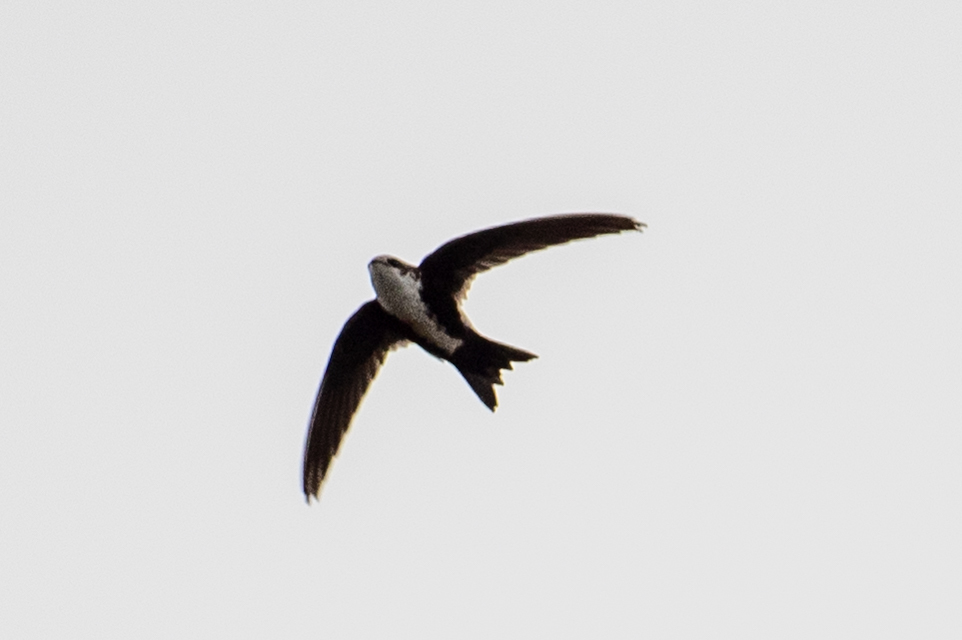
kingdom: Animalia
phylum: Chordata
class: Aves
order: Apodiformes
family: Apodidae
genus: Aeronautes
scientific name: Aeronautes saxatalis
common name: White-throated swift
